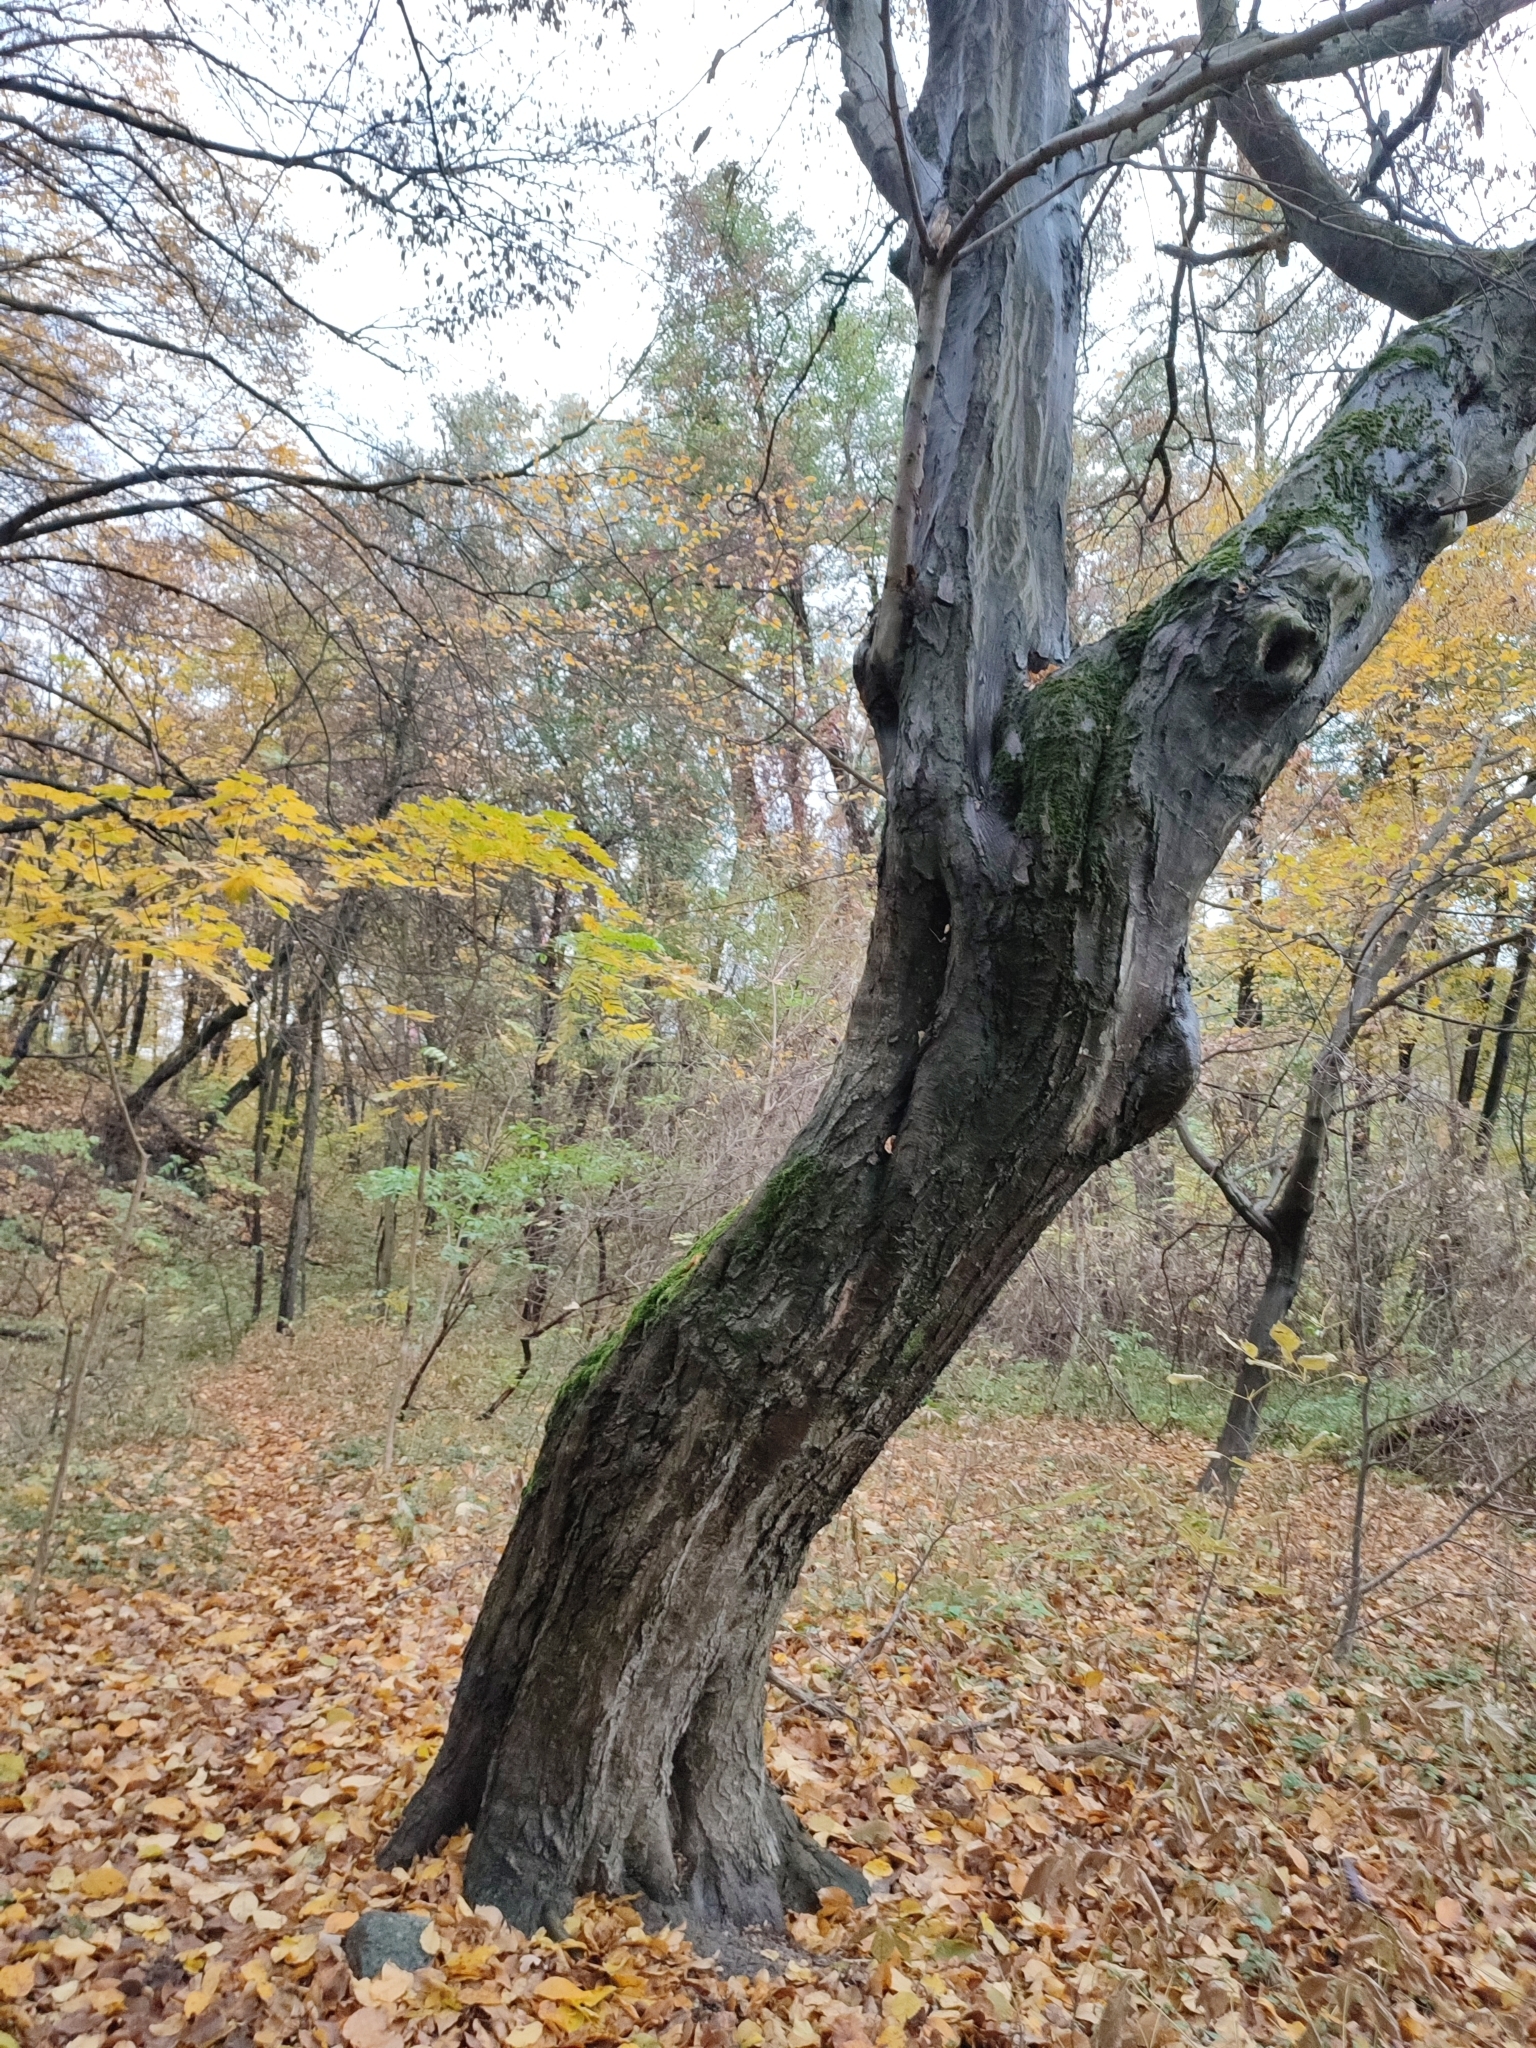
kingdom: Plantae
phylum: Tracheophyta
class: Magnoliopsida
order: Fagales
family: Betulaceae
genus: Carpinus
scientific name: Carpinus betulus
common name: Hornbeam
